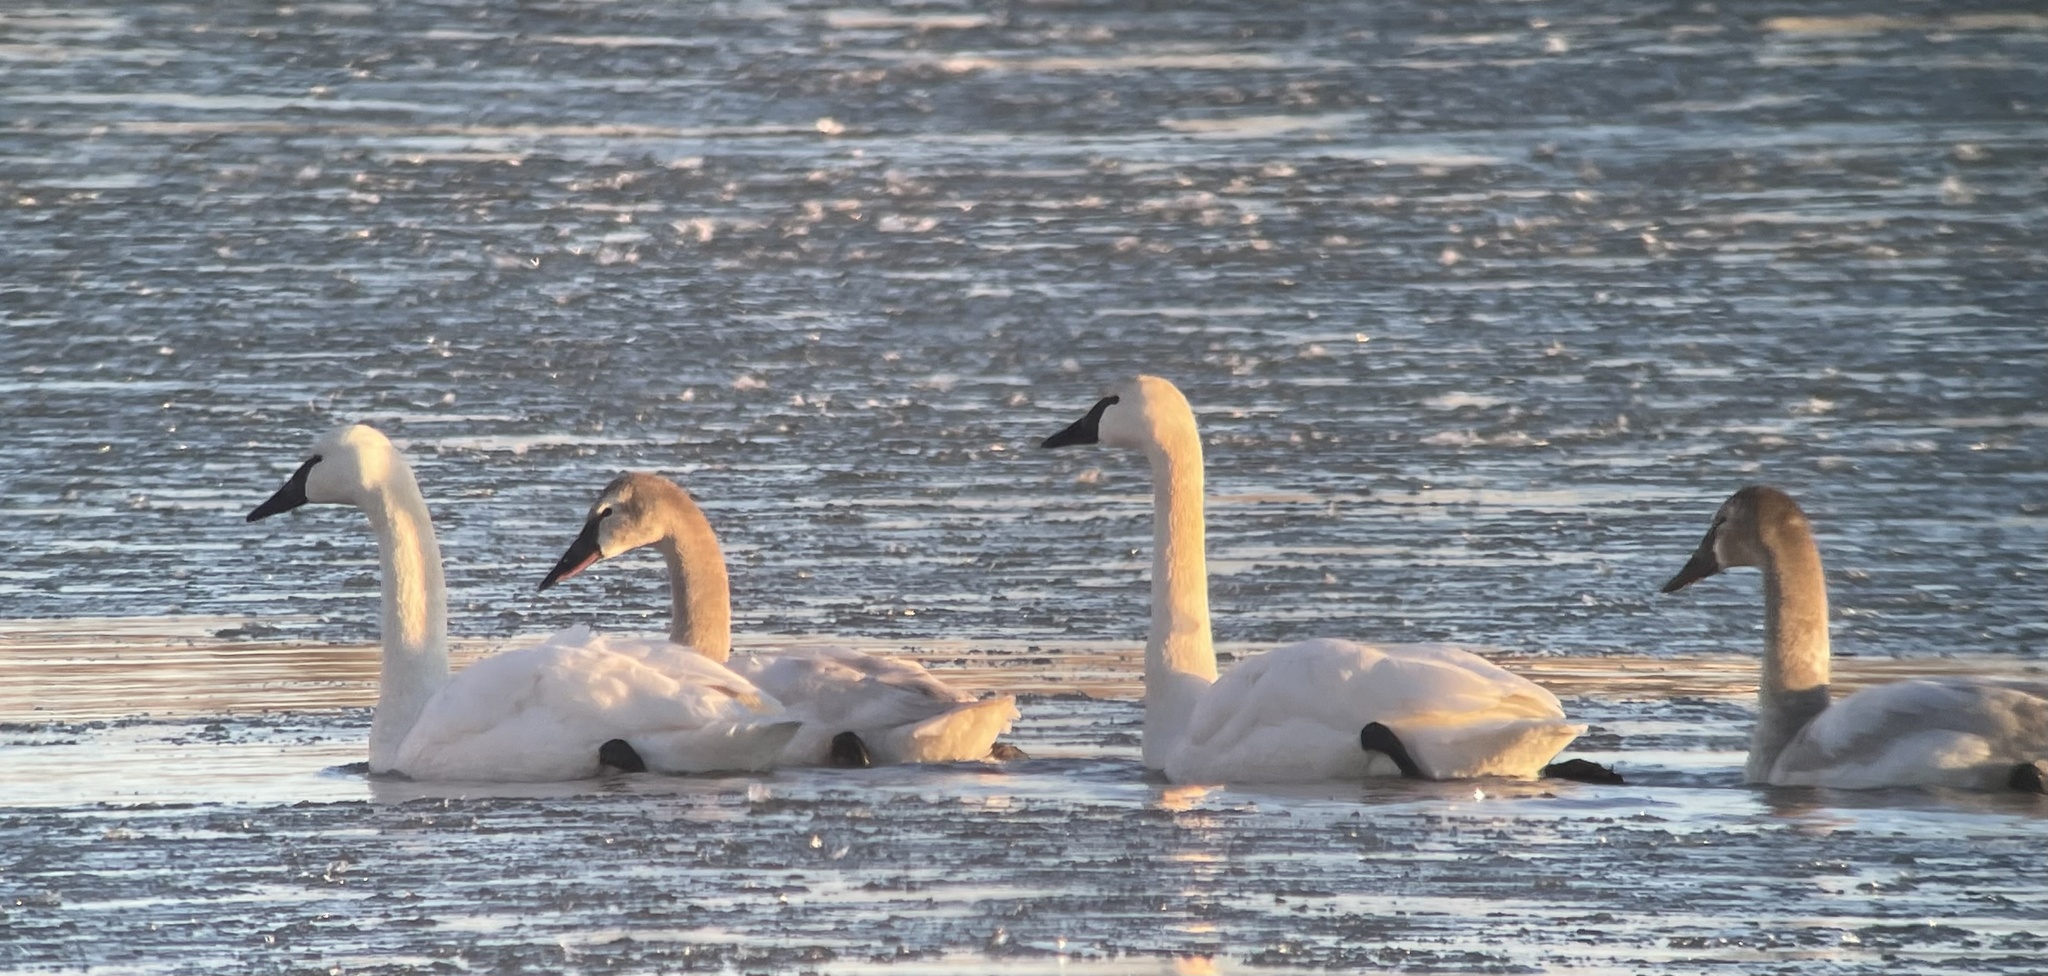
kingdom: Animalia
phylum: Chordata
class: Aves
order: Anseriformes
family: Anatidae
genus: Cygnus
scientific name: Cygnus columbianus
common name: Tundra swan
